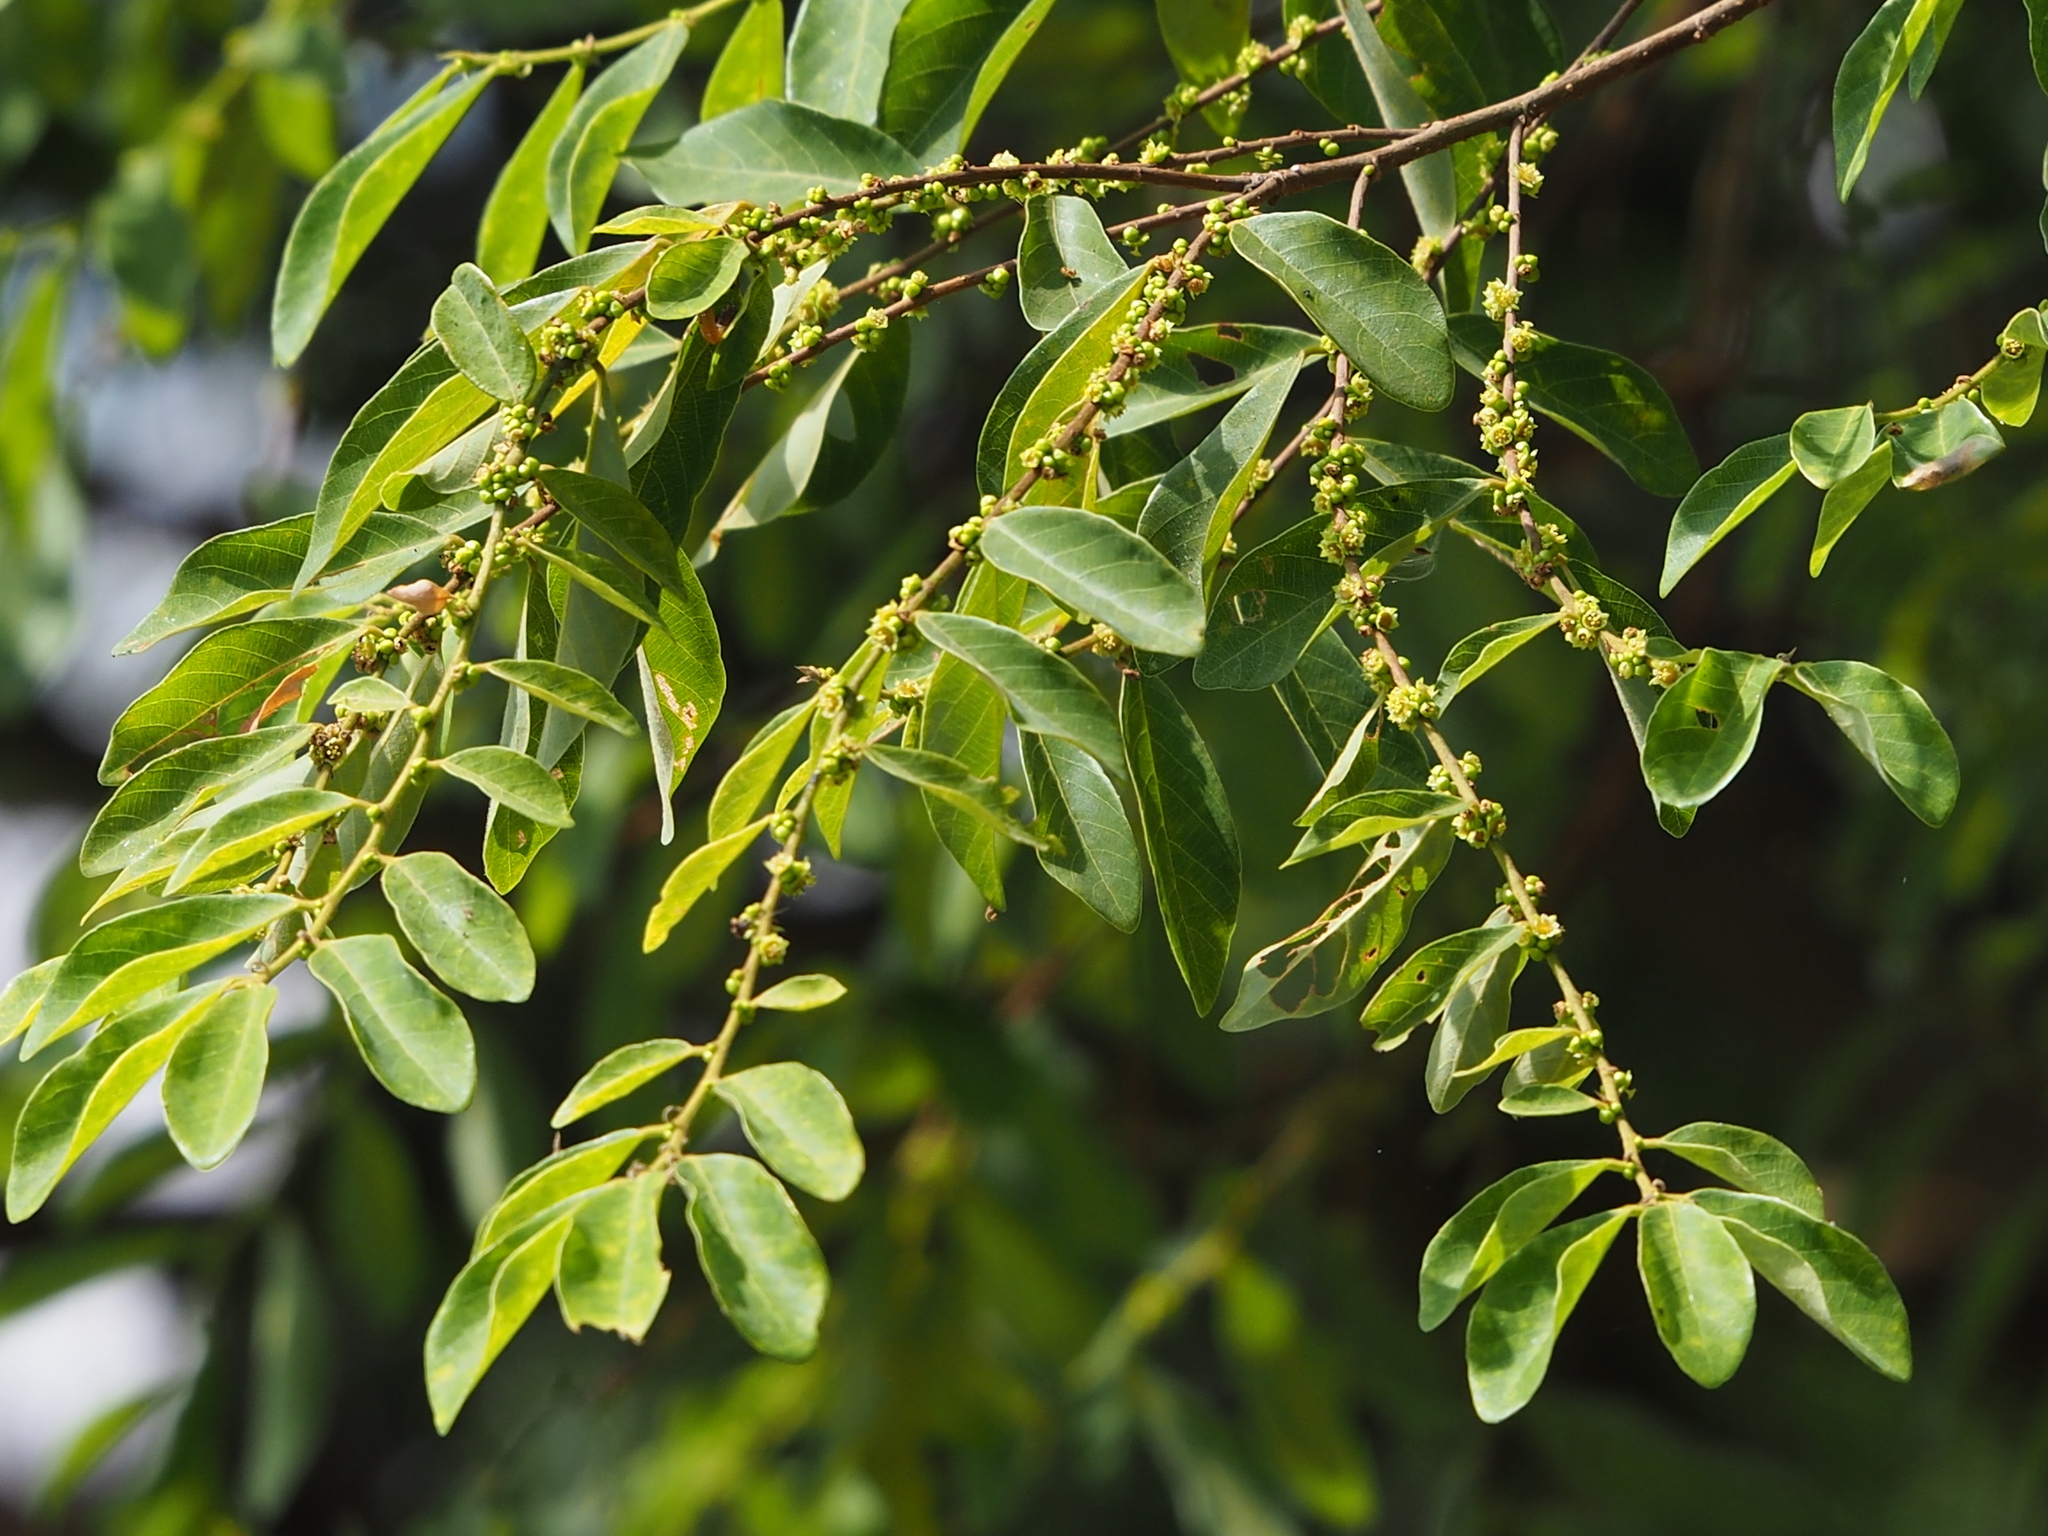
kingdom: Plantae
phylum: Tracheophyta
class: Magnoliopsida
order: Malpighiales
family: Phyllanthaceae
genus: Bridelia
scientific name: Bridelia tomentosa
